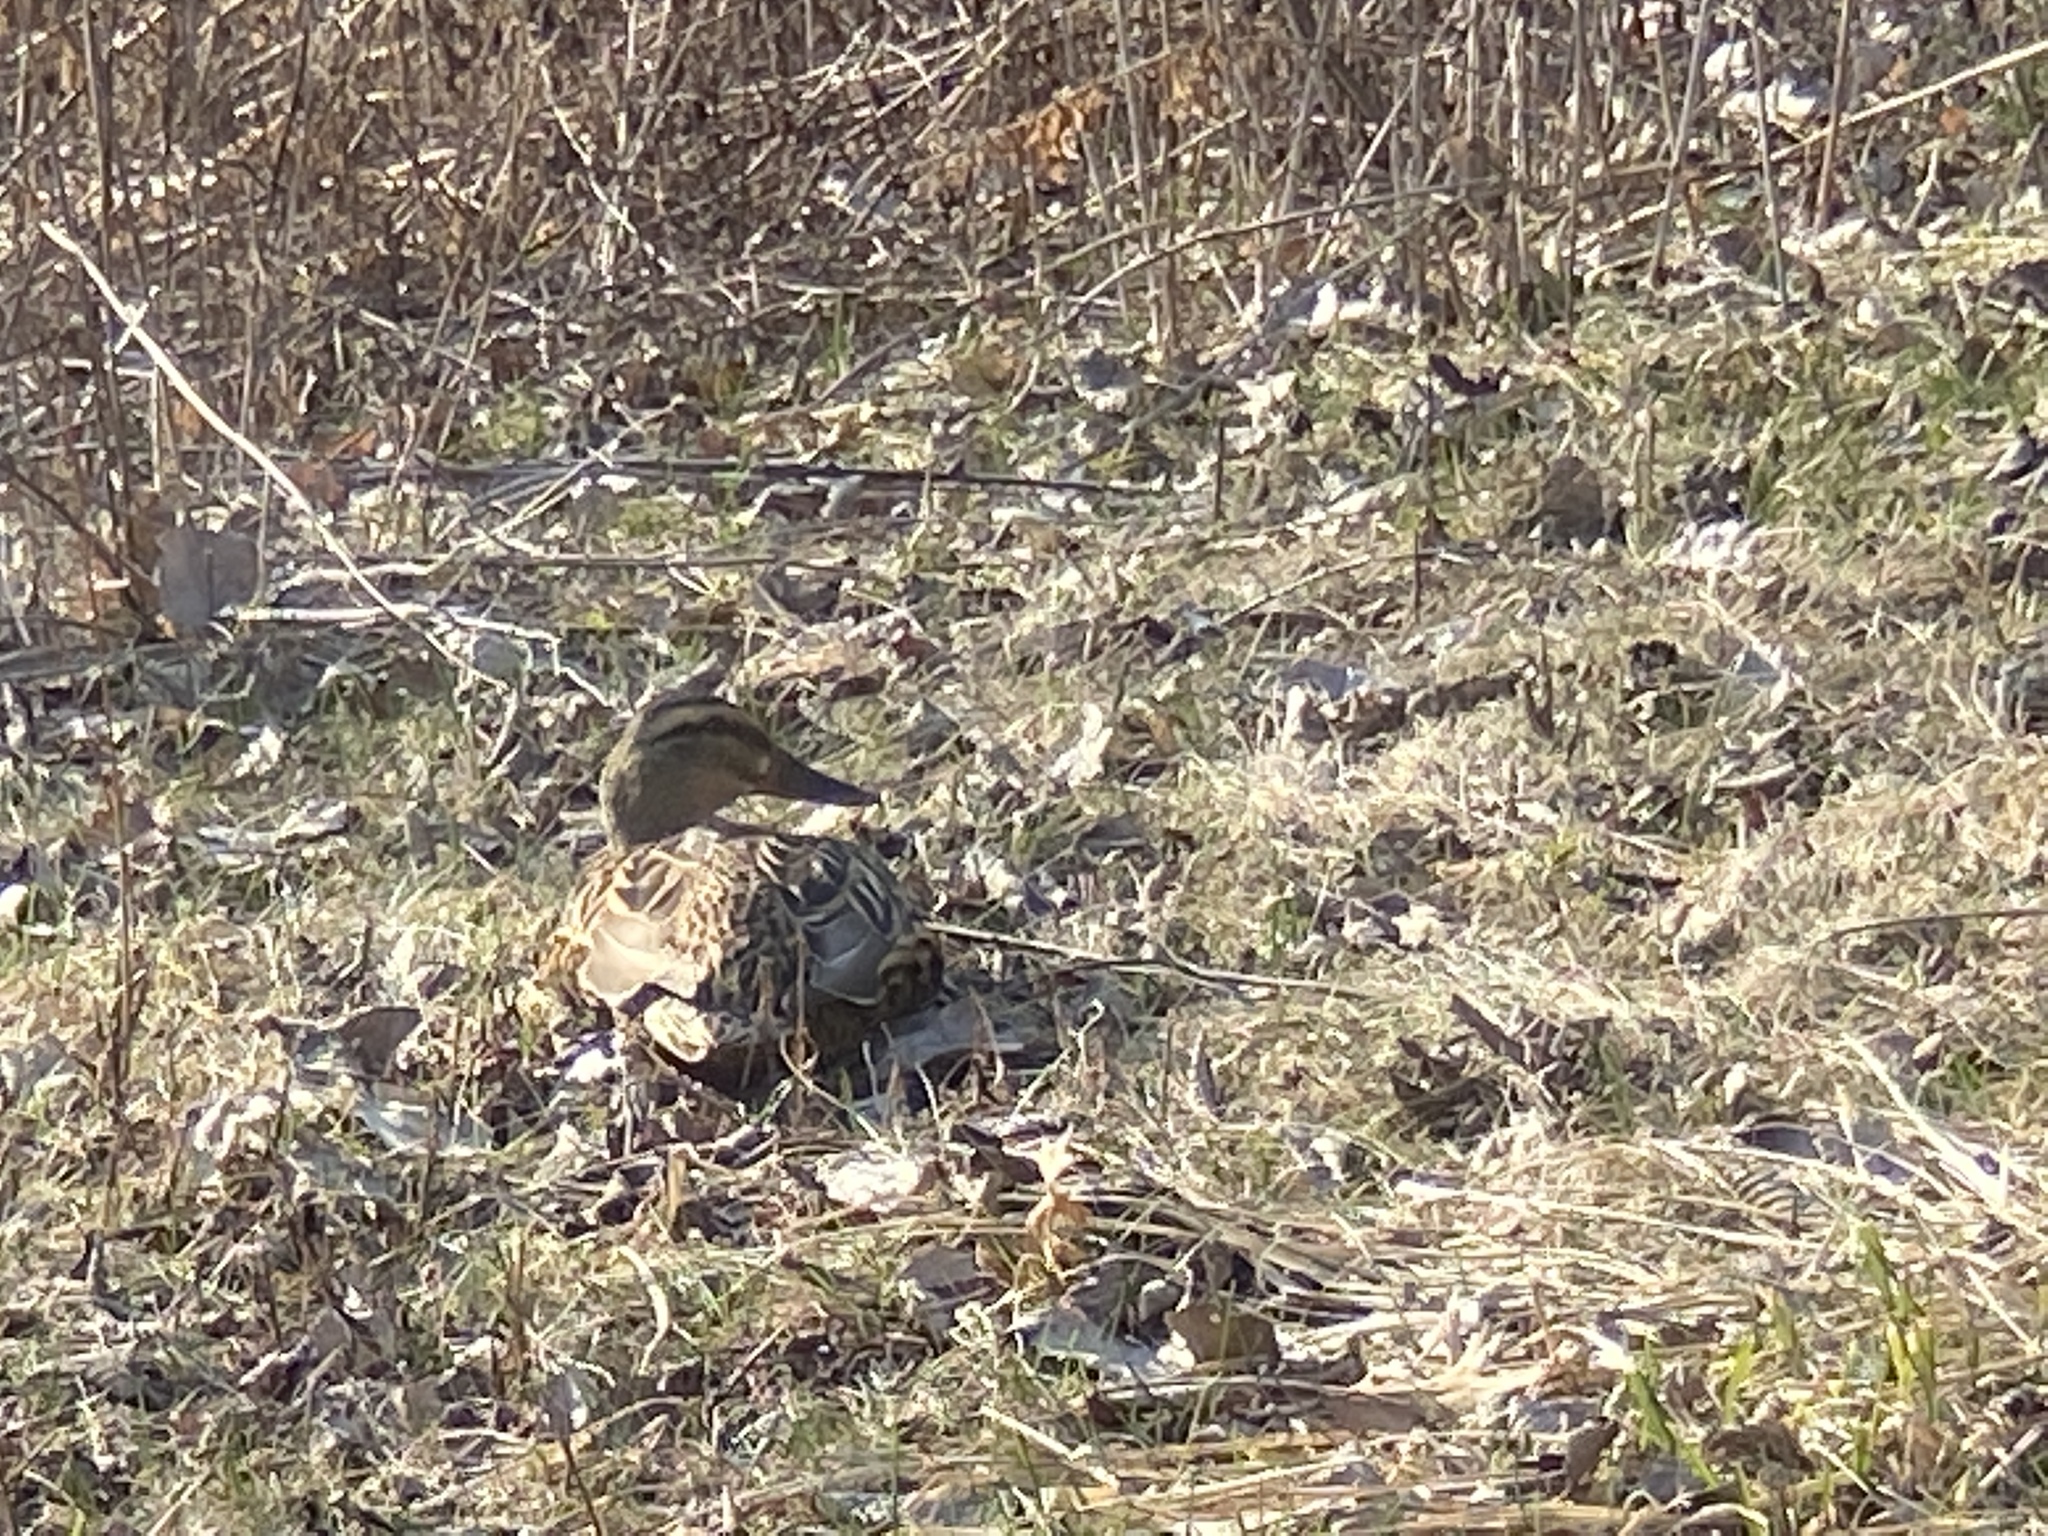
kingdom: Animalia
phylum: Chordata
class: Aves
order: Anseriformes
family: Anatidae
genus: Anas
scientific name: Anas platyrhynchos
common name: Mallard
